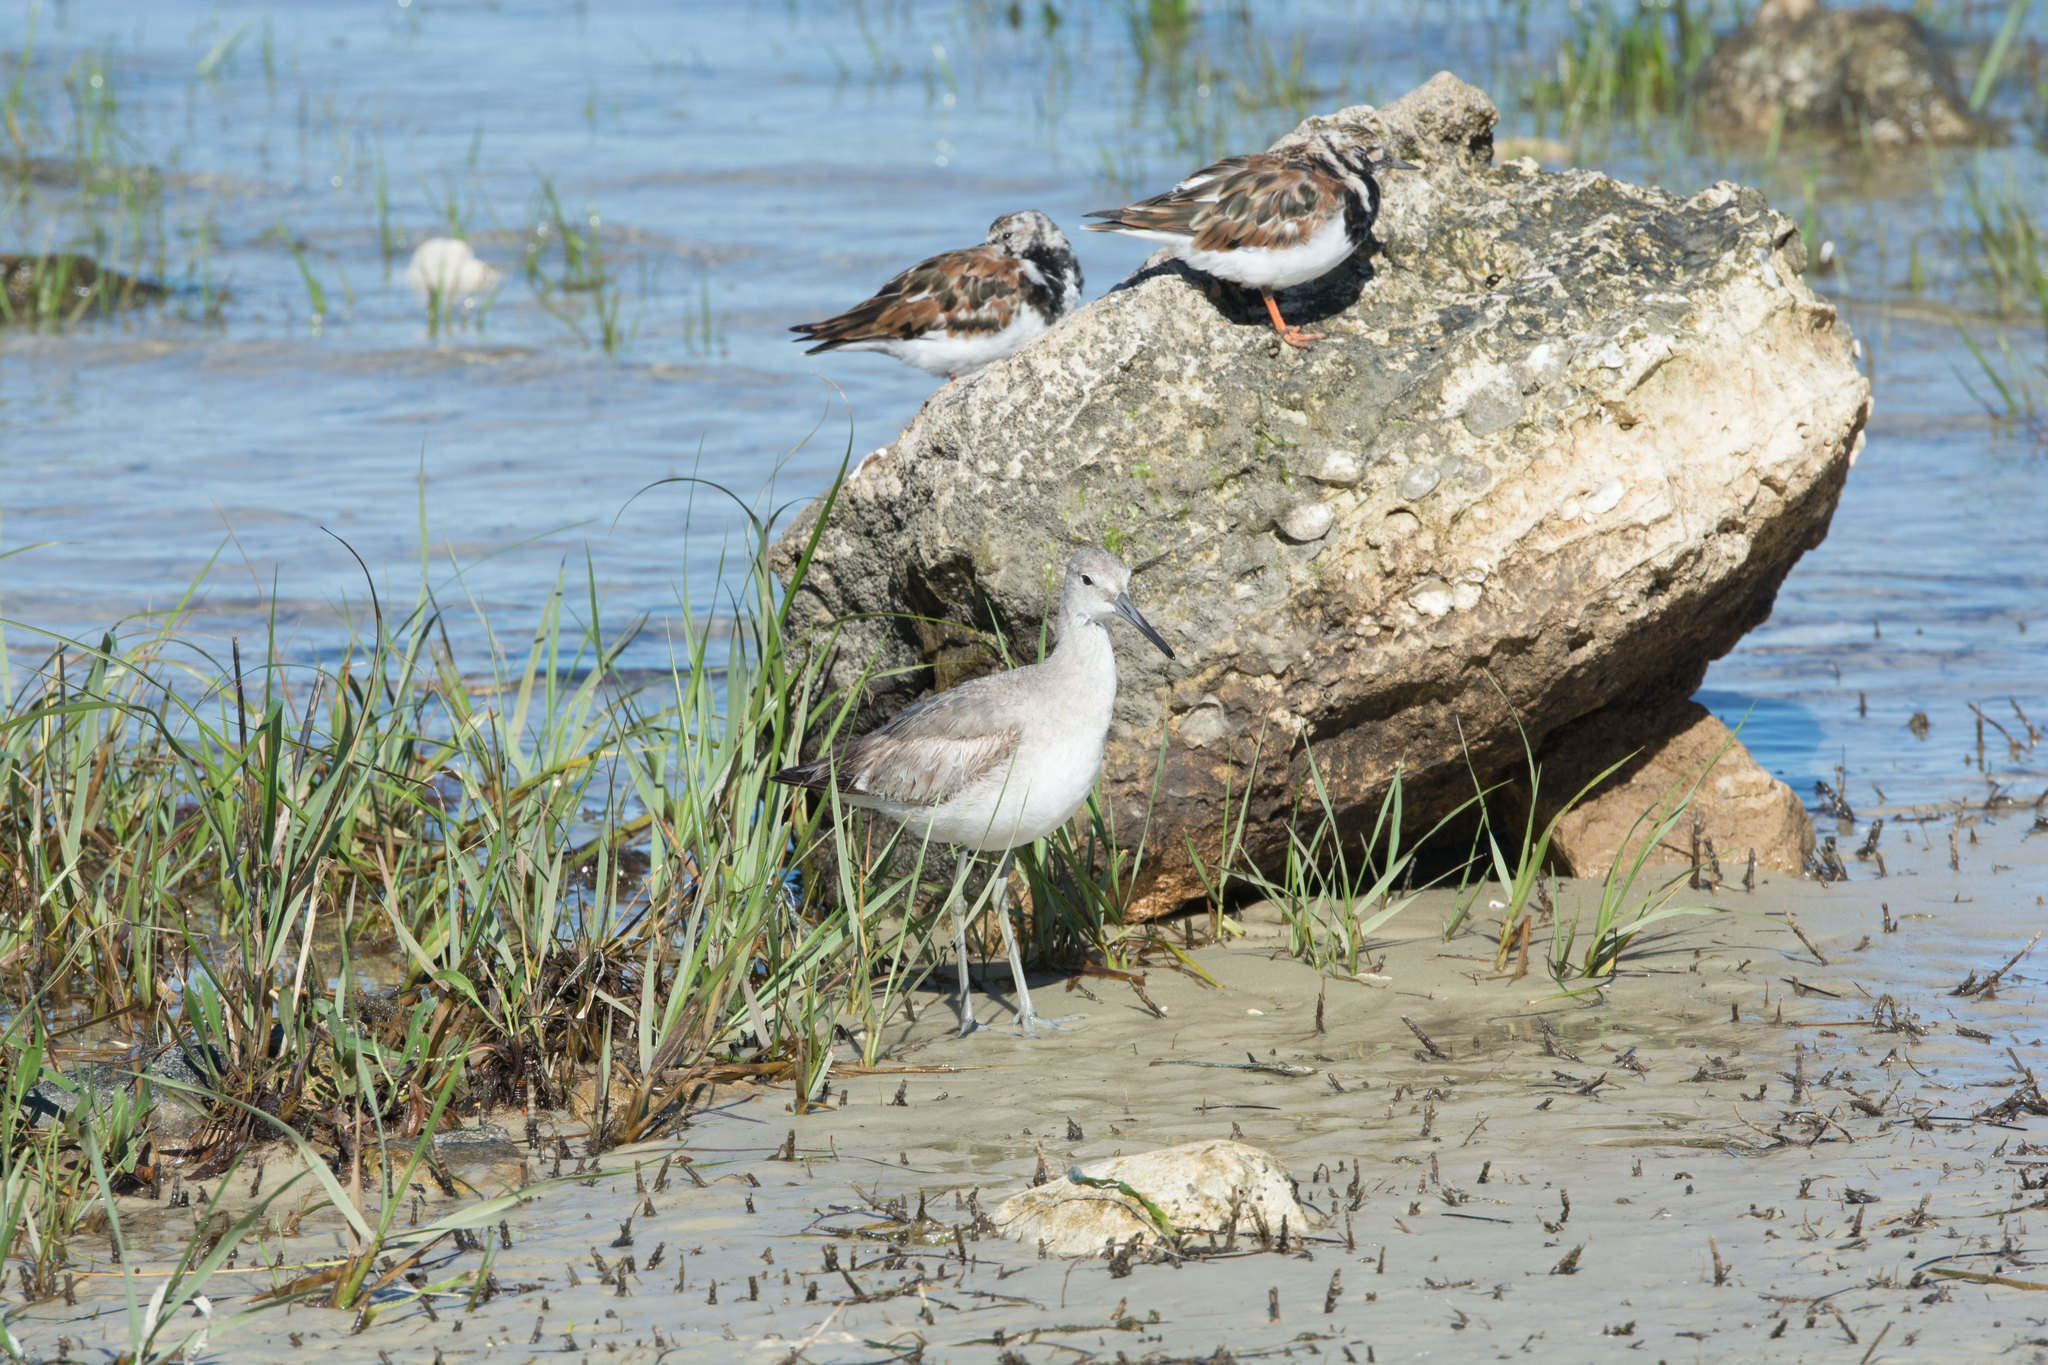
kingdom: Animalia
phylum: Chordata
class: Aves
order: Charadriiformes
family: Scolopacidae
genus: Tringa
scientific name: Tringa semipalmata
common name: Willet
